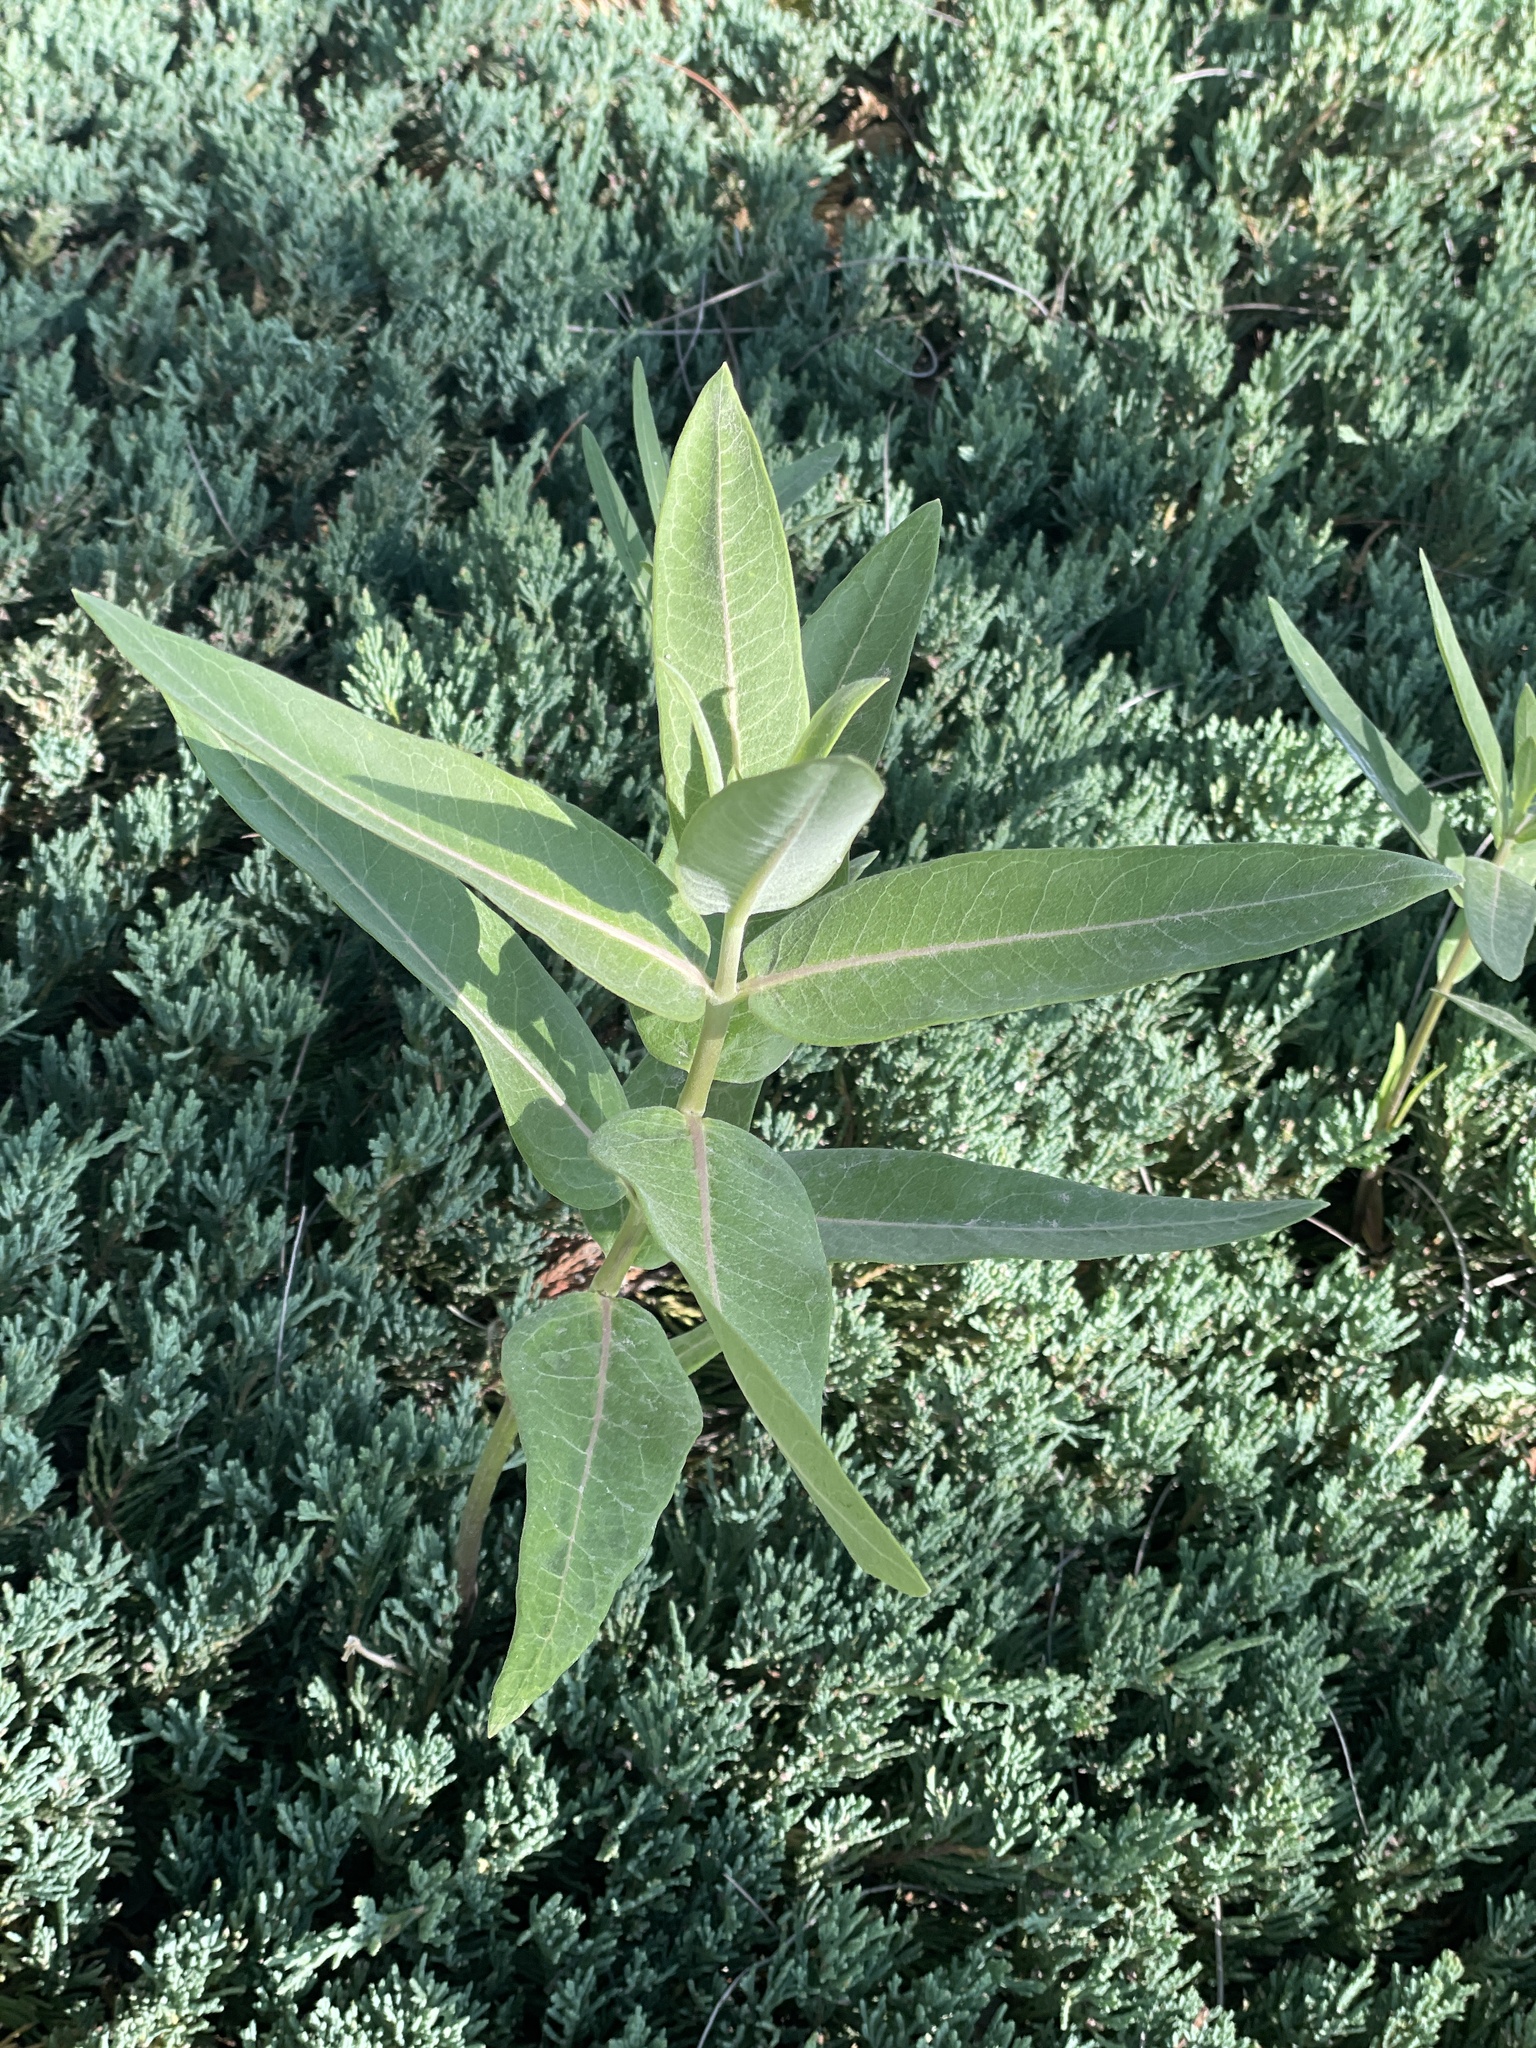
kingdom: Plantae
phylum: Tracheophyta
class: Magnoliopsida
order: Gentianales
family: Apocynaceae
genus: Asclepias
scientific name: Asclepias speciosa
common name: Showy milkweed
